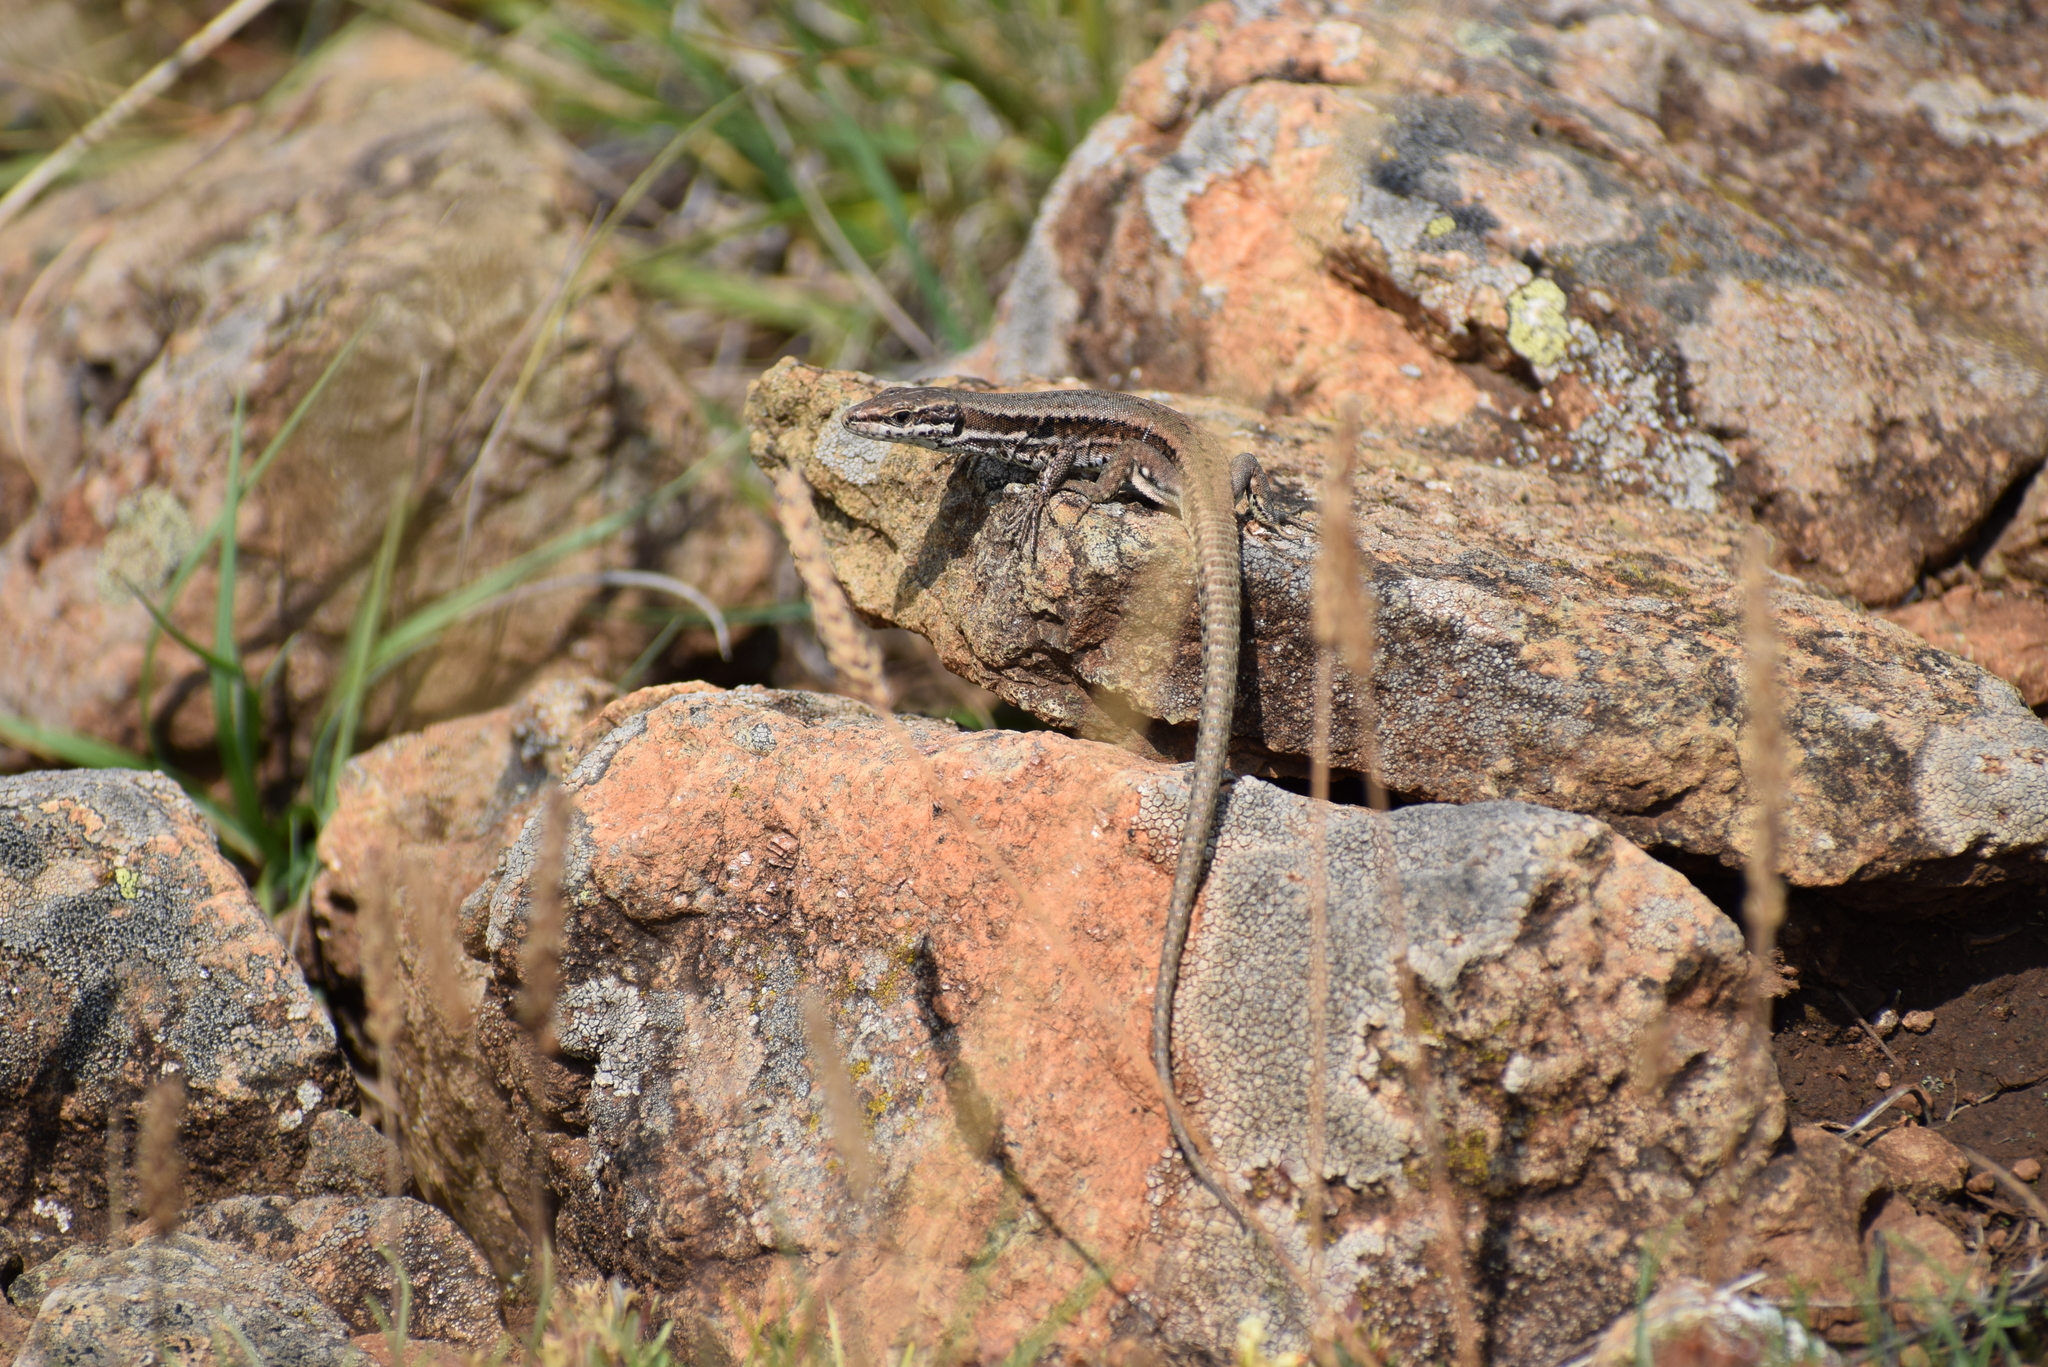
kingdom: Animalia
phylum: Chordata
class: Squamata
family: Lacertidae
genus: Podarcis
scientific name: Podarcis muralis
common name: Common wall lizard
